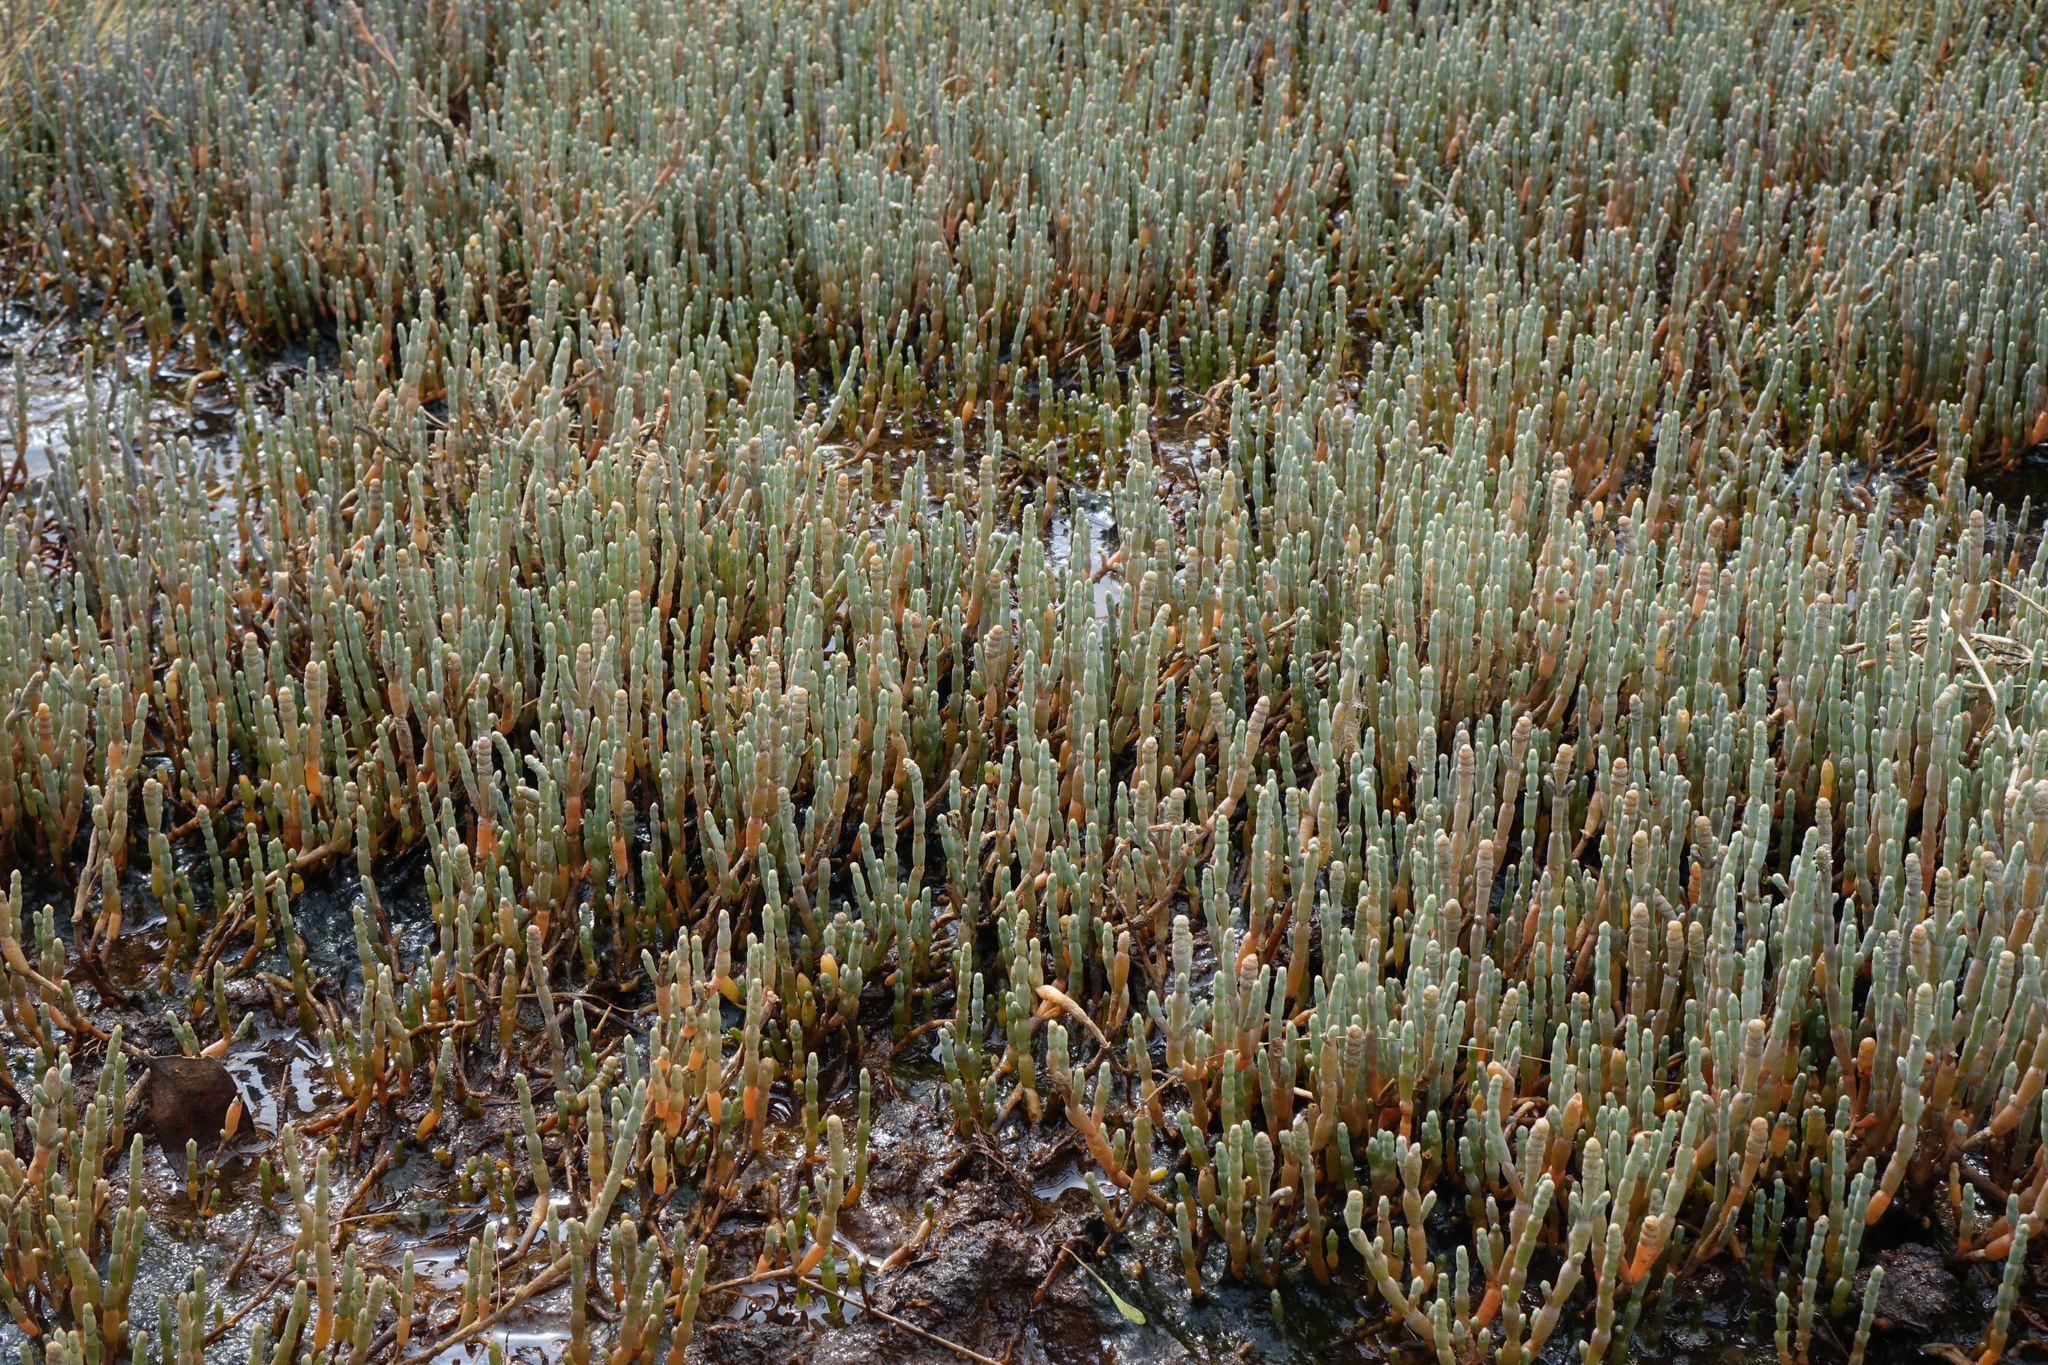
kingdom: Plantae
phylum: Tracheophyta
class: Magnoliopsida
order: Caryophyllales
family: Amaranthaceae
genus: Salicornia
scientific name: Salicornia quinqueflora
